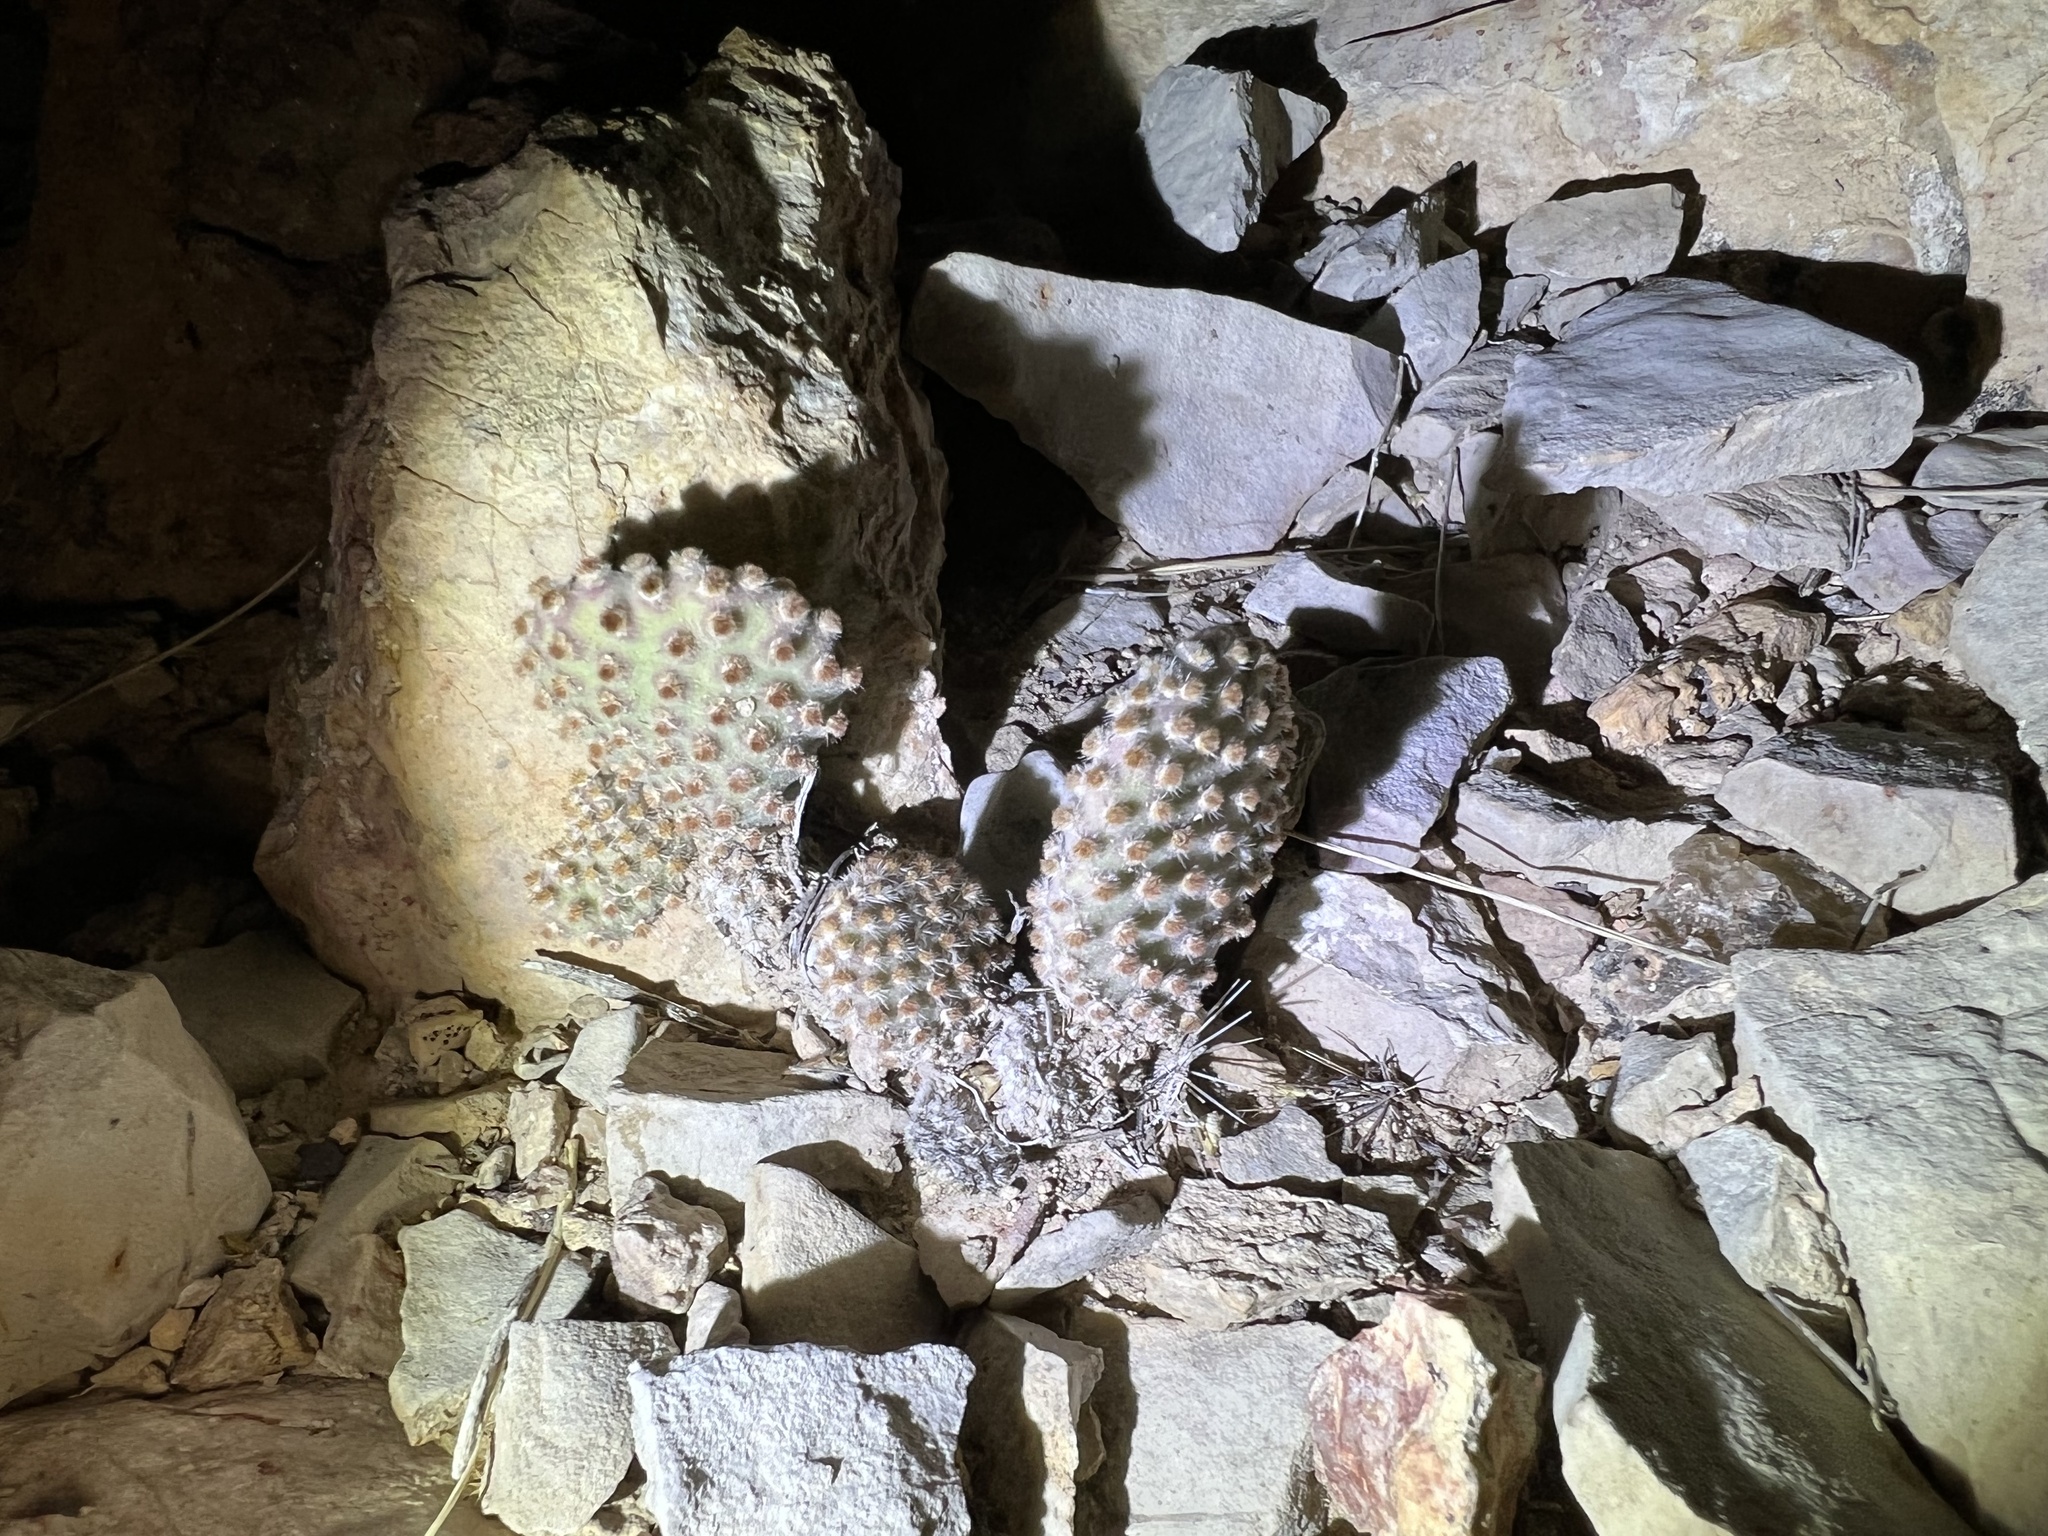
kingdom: Plantae
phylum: Tracheophyta
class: Magnoliopsida
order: Caryophyllales
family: Cactaceae
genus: Opuntia
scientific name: Opuntia rufida
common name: Blind pricklypear
